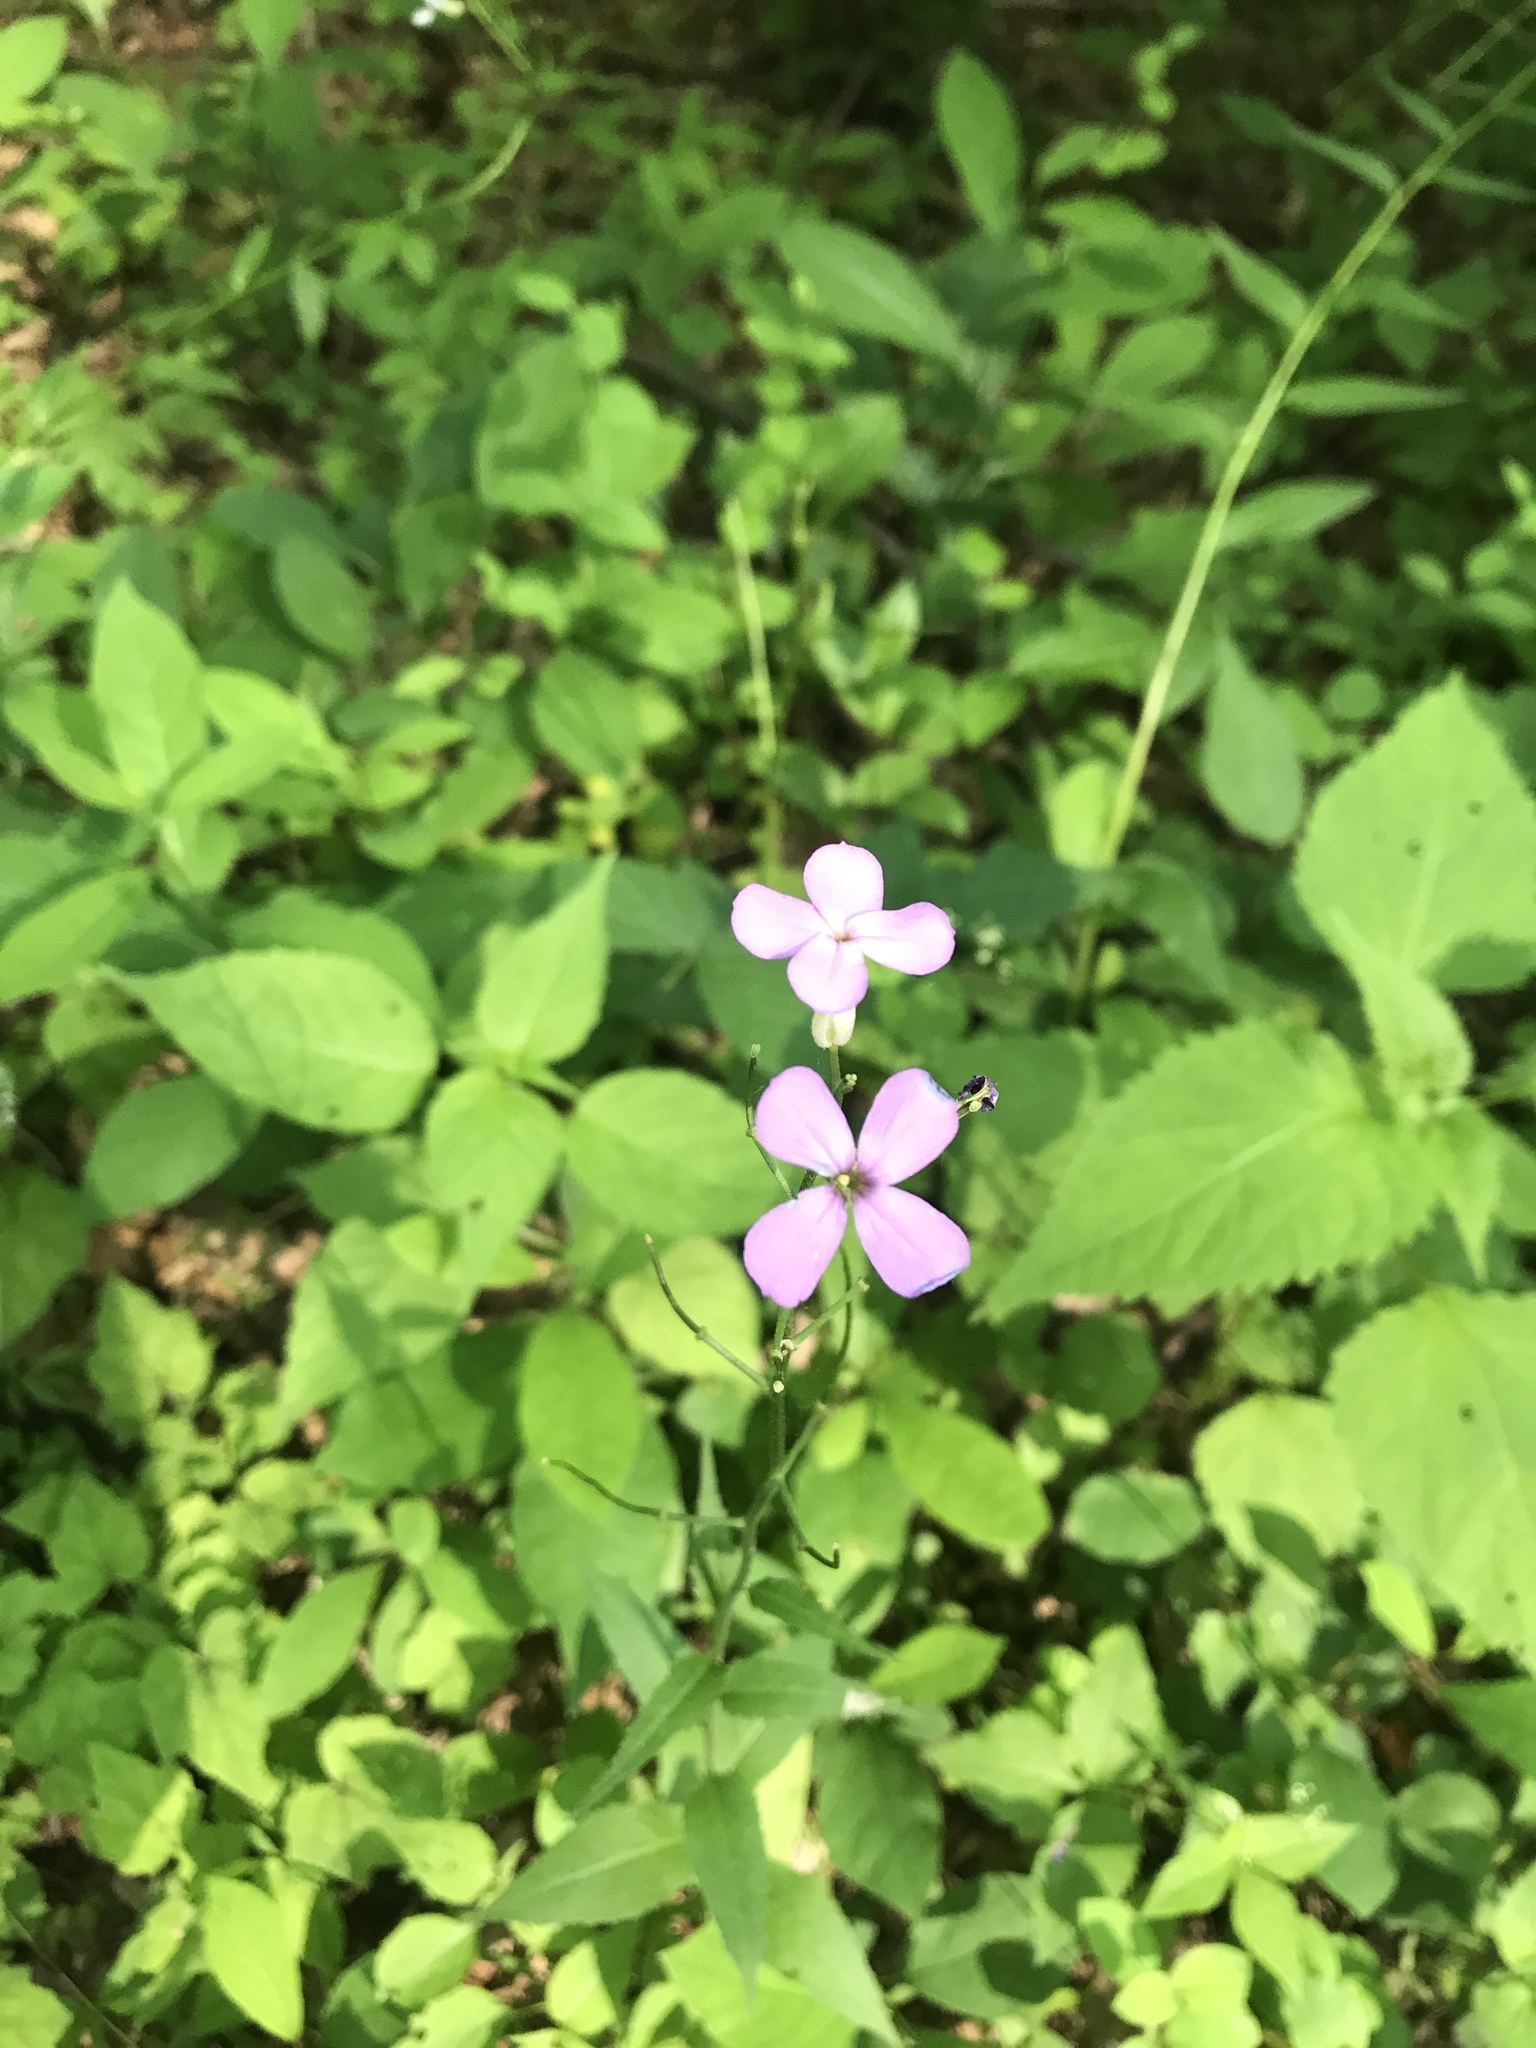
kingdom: Plantae
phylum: Tracheophyta
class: Magnoliopsida
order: Brassicales
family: Brassicaceae
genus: Hesperis
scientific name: Hesperis matronalis
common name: Dame's-violet
